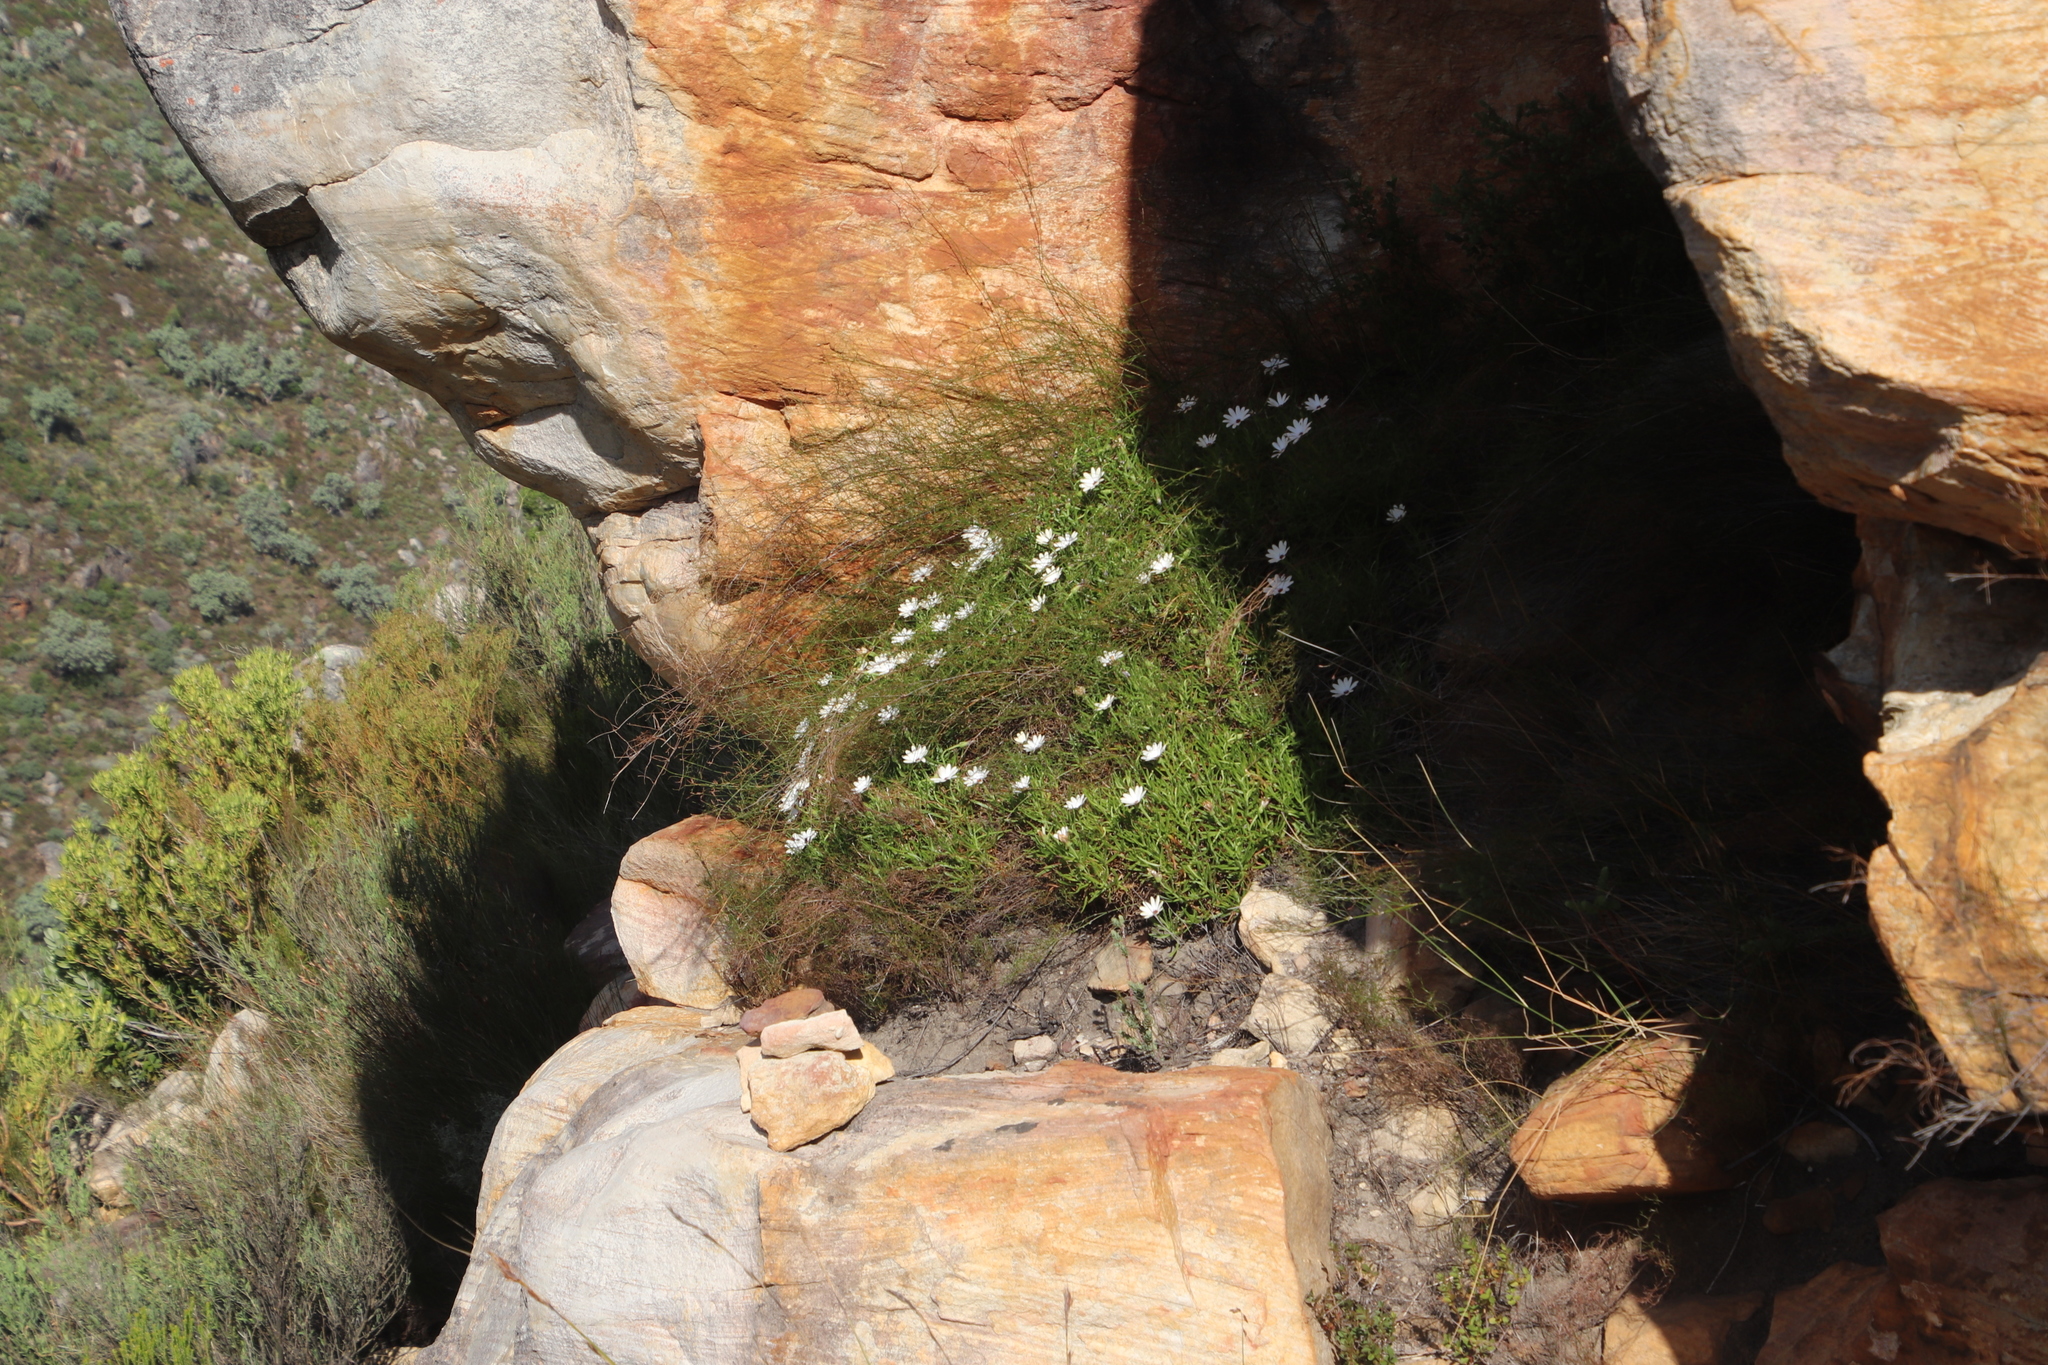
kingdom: Plantae
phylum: Tracheophyta
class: Magnoliopsida
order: Asterales
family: Asteraceae
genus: Dimorphotheca
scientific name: Dimorphotheca acutifolia
